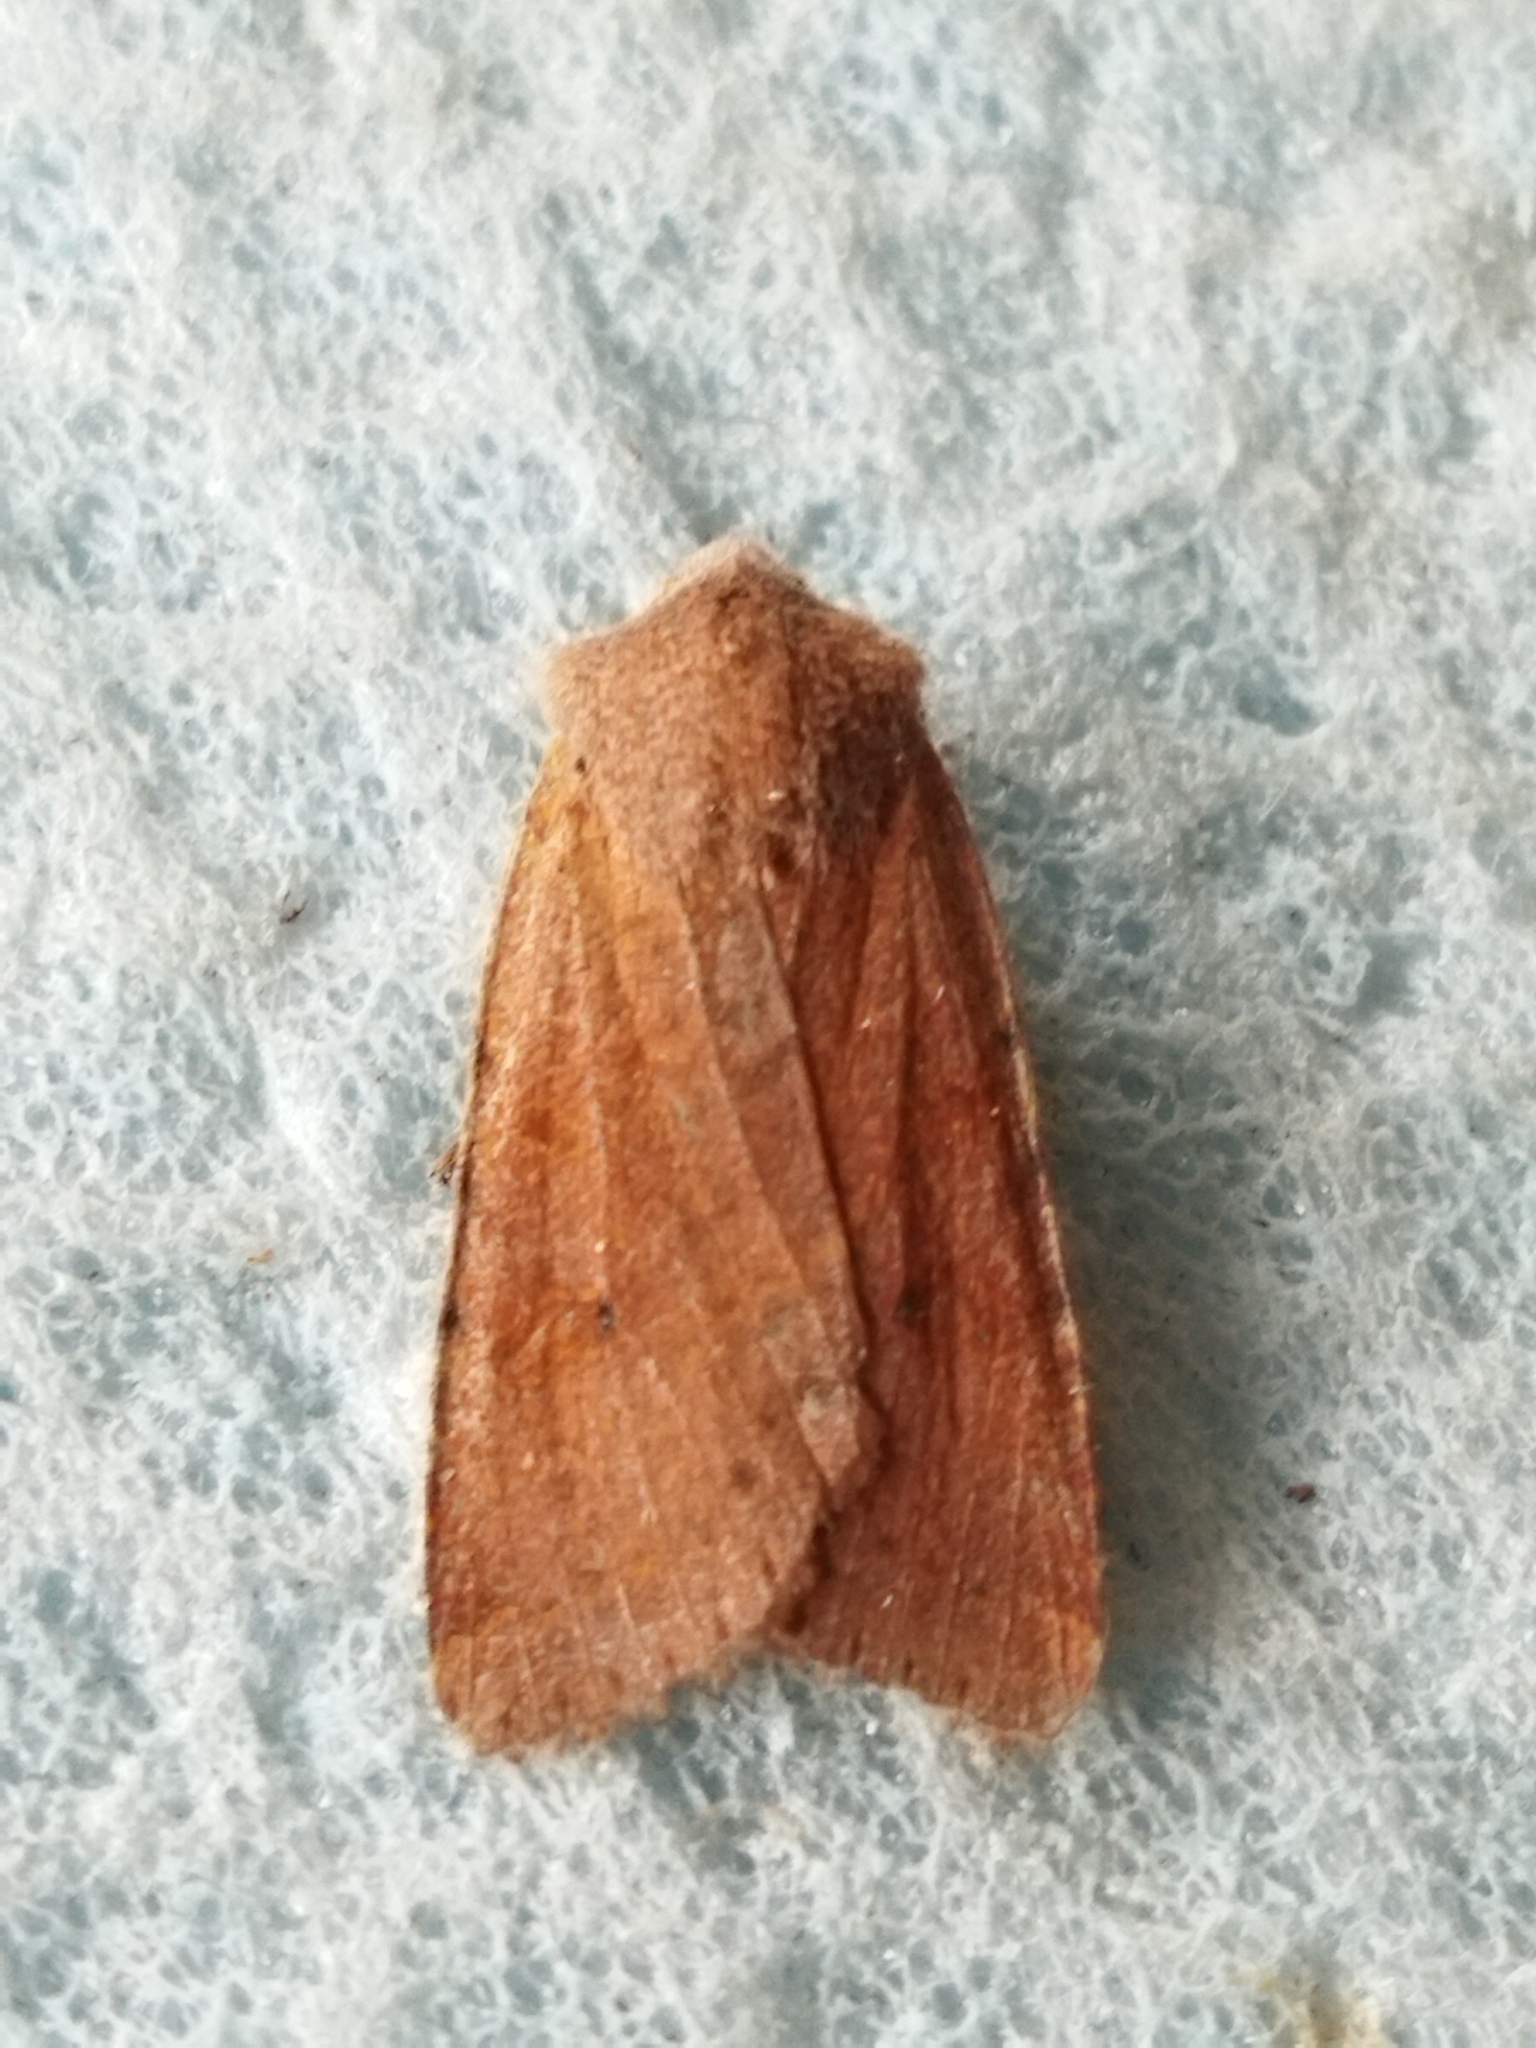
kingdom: Animalia
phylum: Arthropoda
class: Insecta
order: Lepidoptera
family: Noctuidae
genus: Agrochola
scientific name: Agrochola lychnidis
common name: Beaded chestnut
